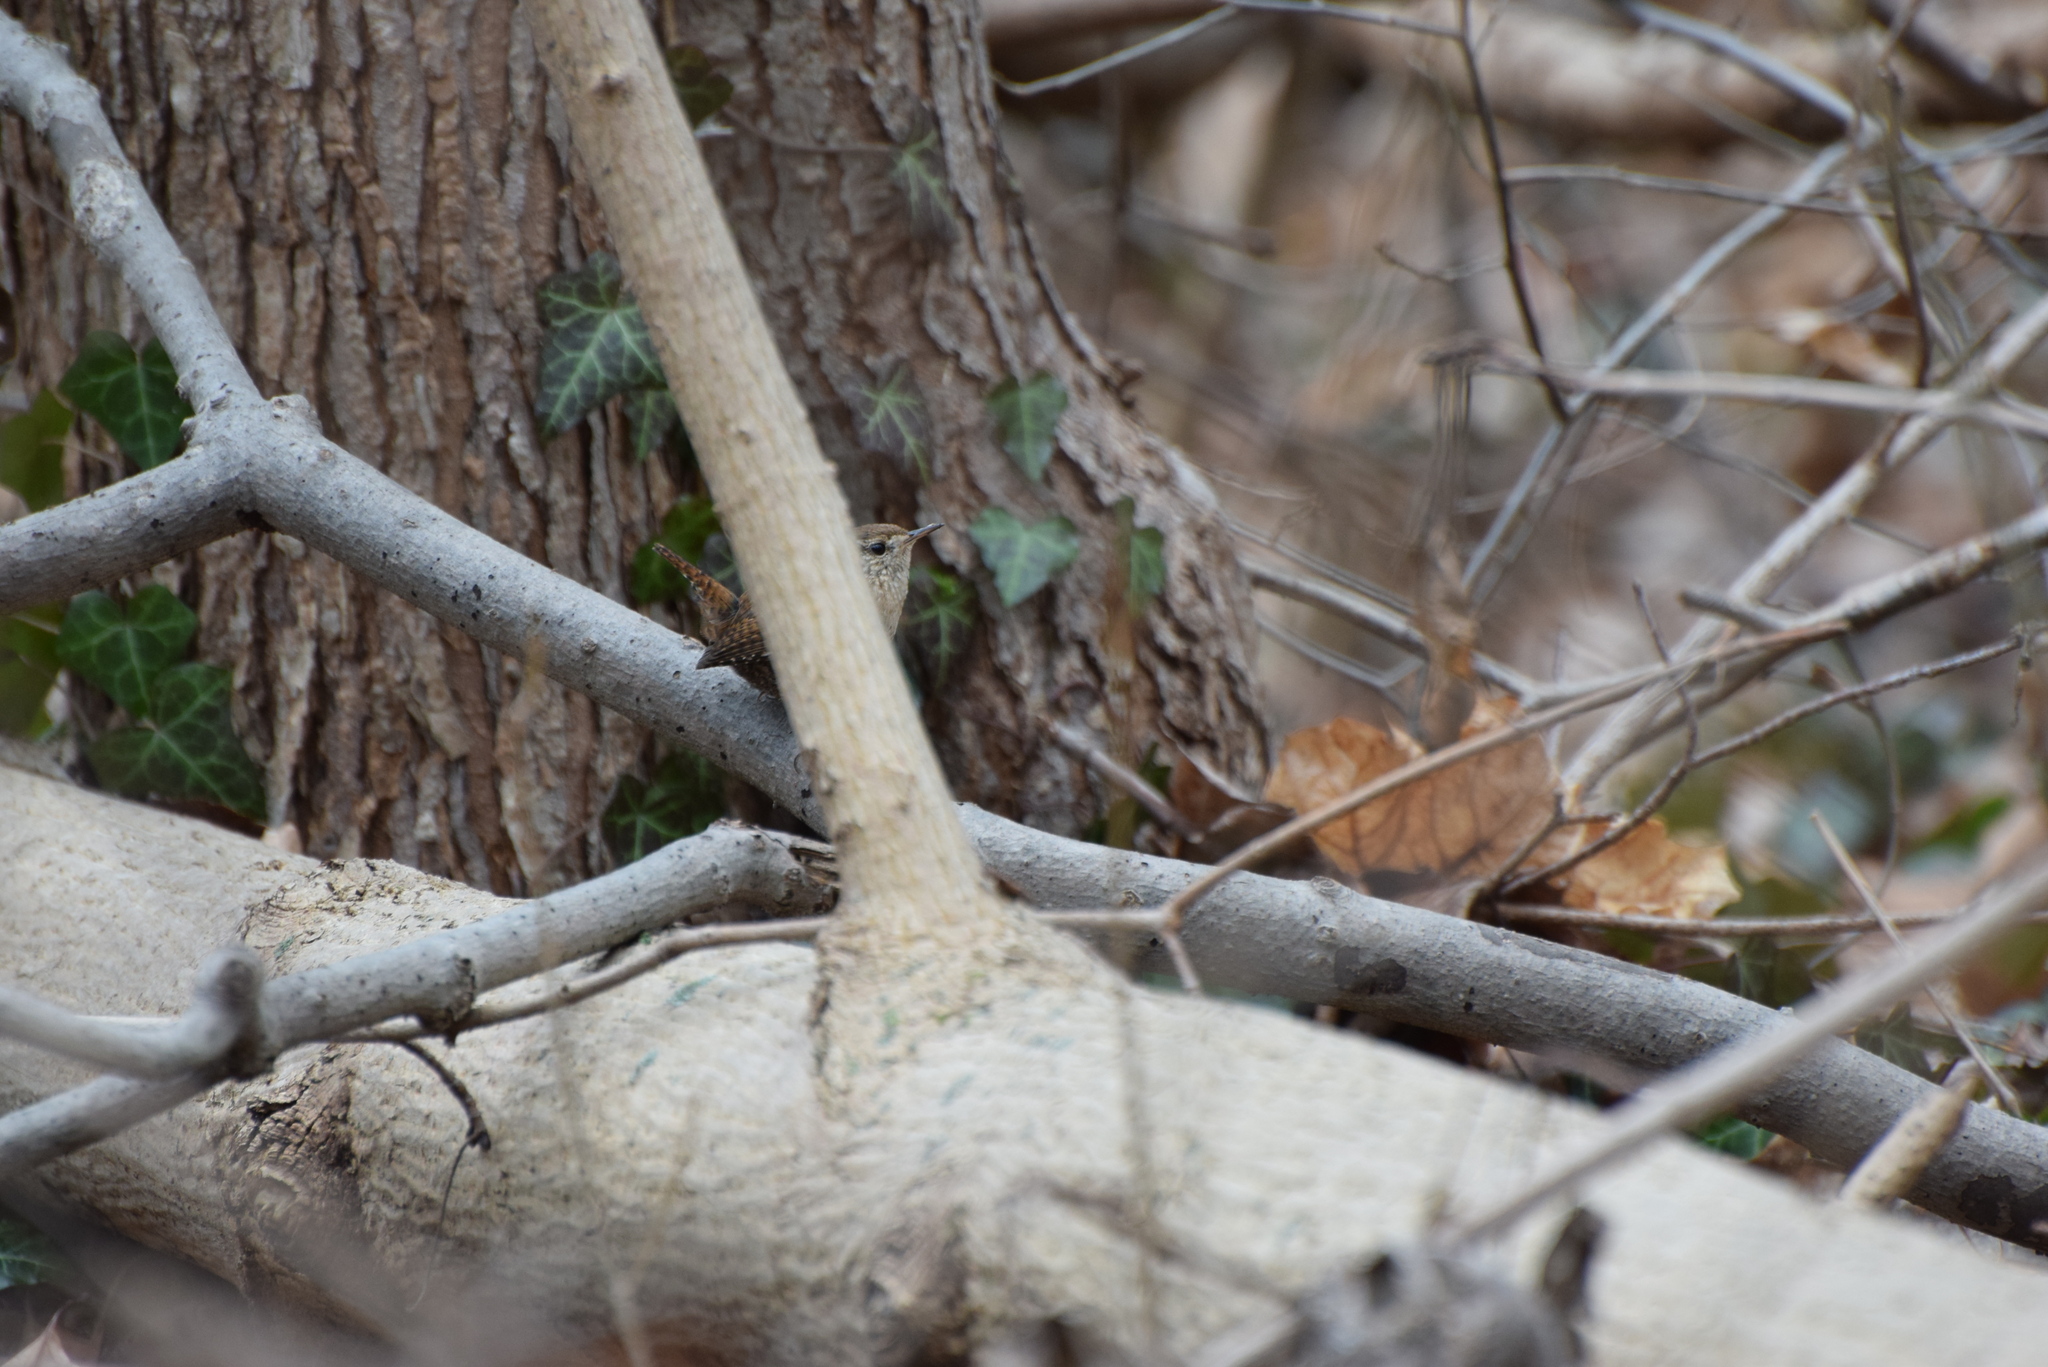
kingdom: Animalia
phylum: Chordata
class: Aves
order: Passeriformes
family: Troglodytidae
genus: Troglodytes
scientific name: Troglodytes hiemalis
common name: Winter wren
